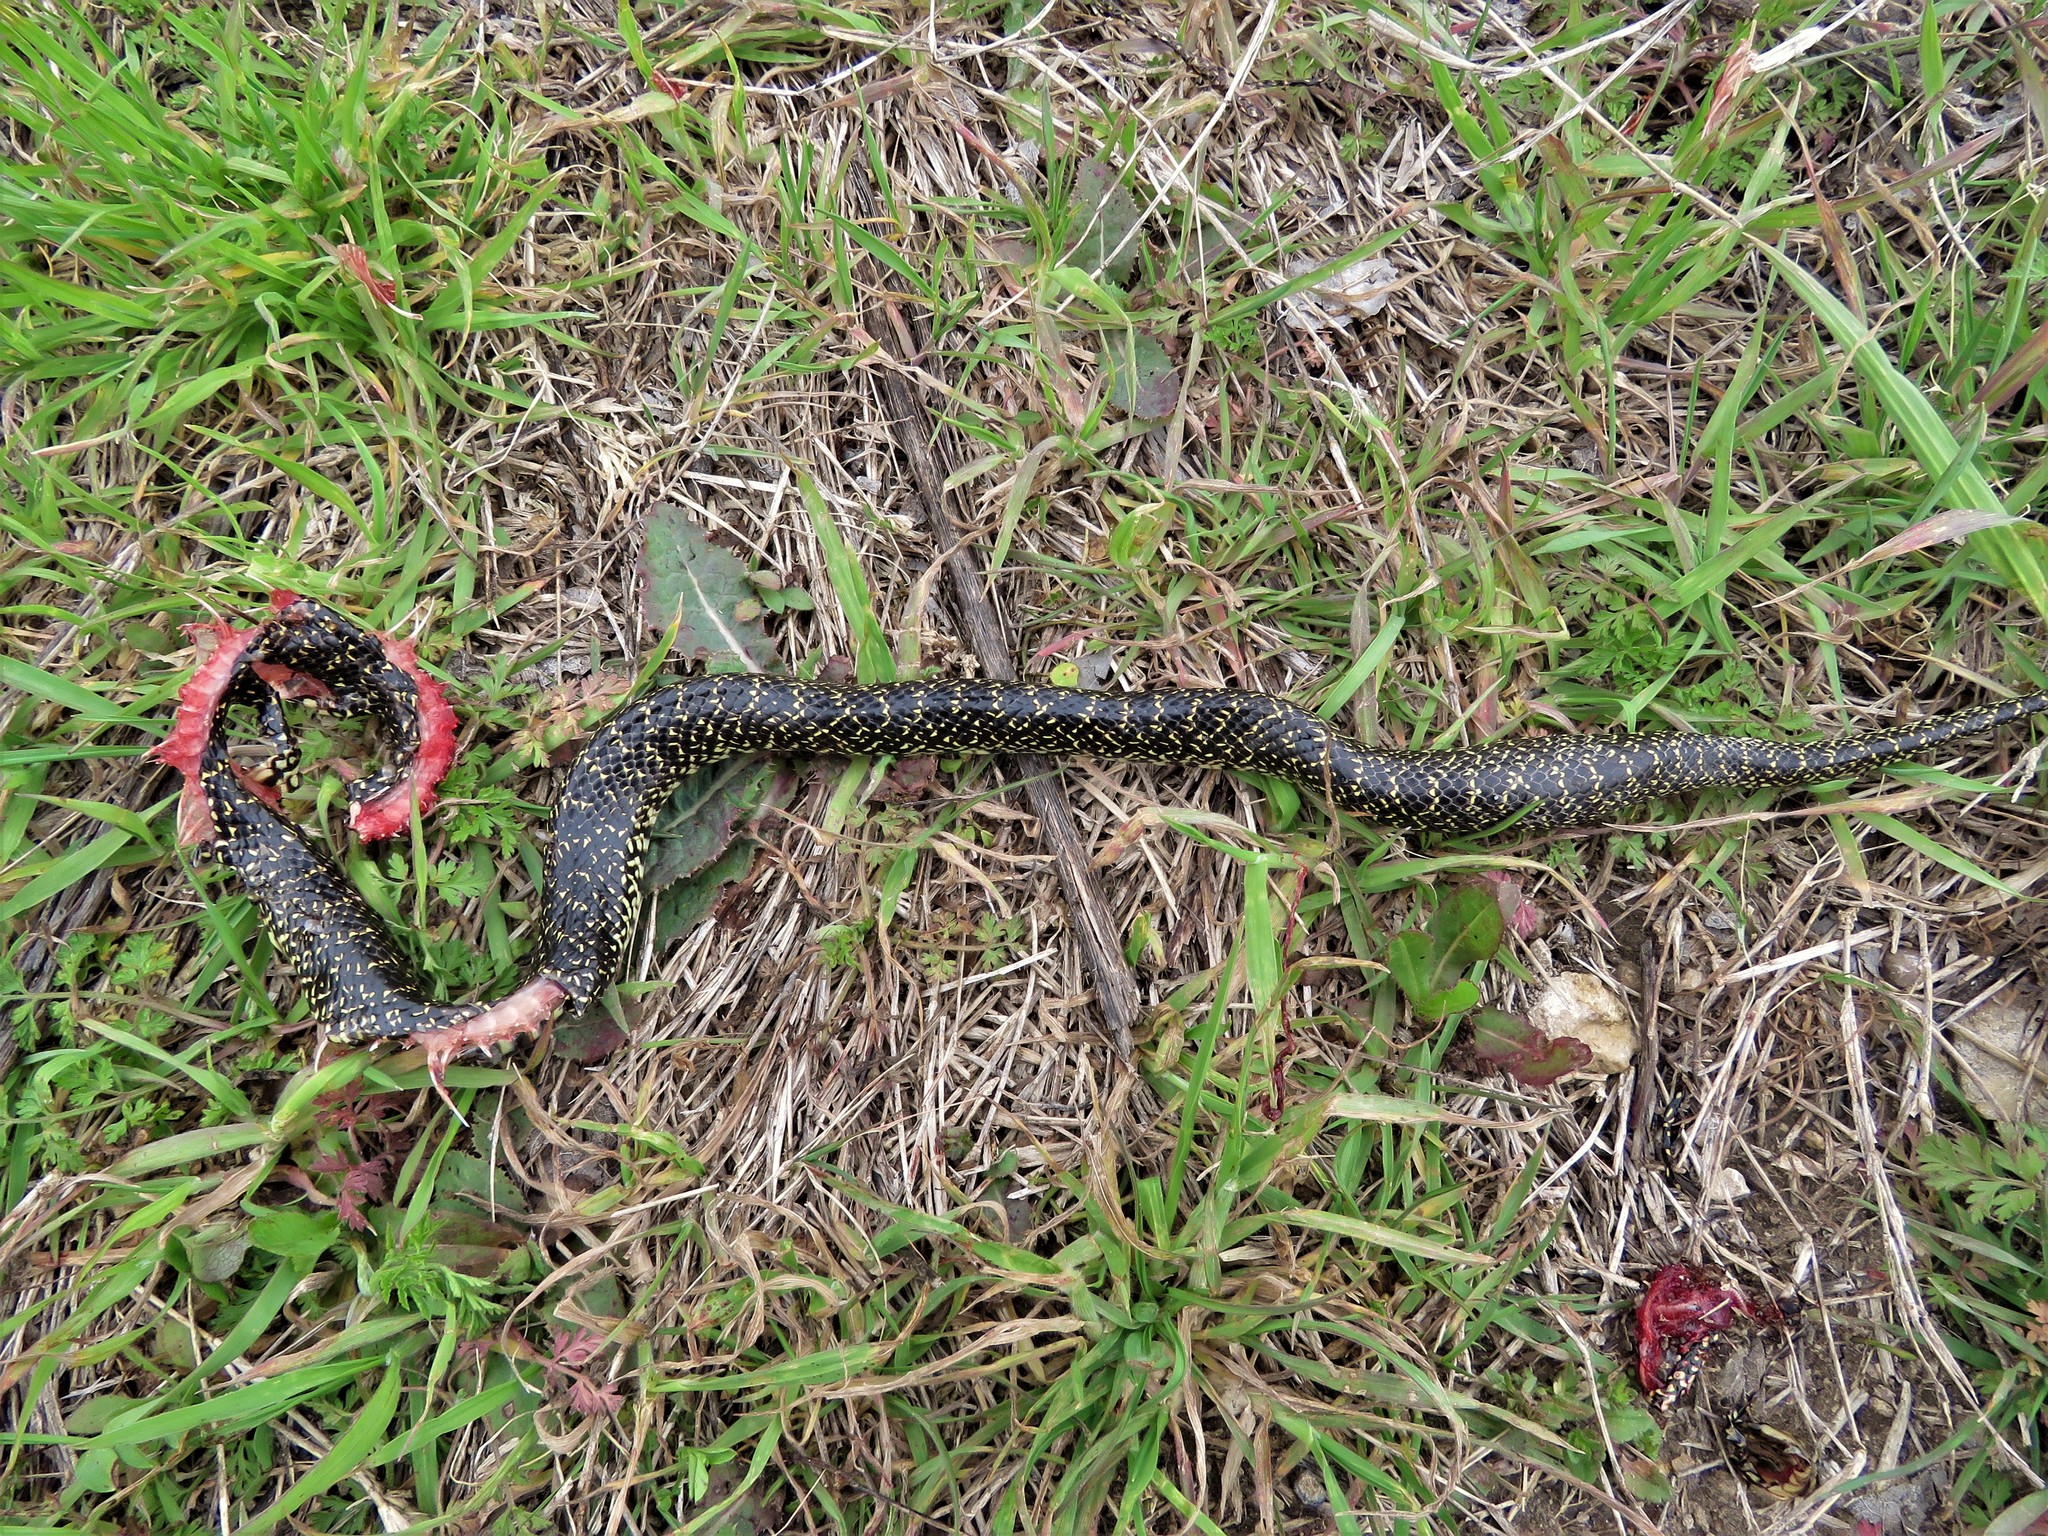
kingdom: Animalia
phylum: Chordata
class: Squamata
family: Colubridae
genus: Lampropeltis
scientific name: Lampropeltis holbrooki
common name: Speckled kingsnake
